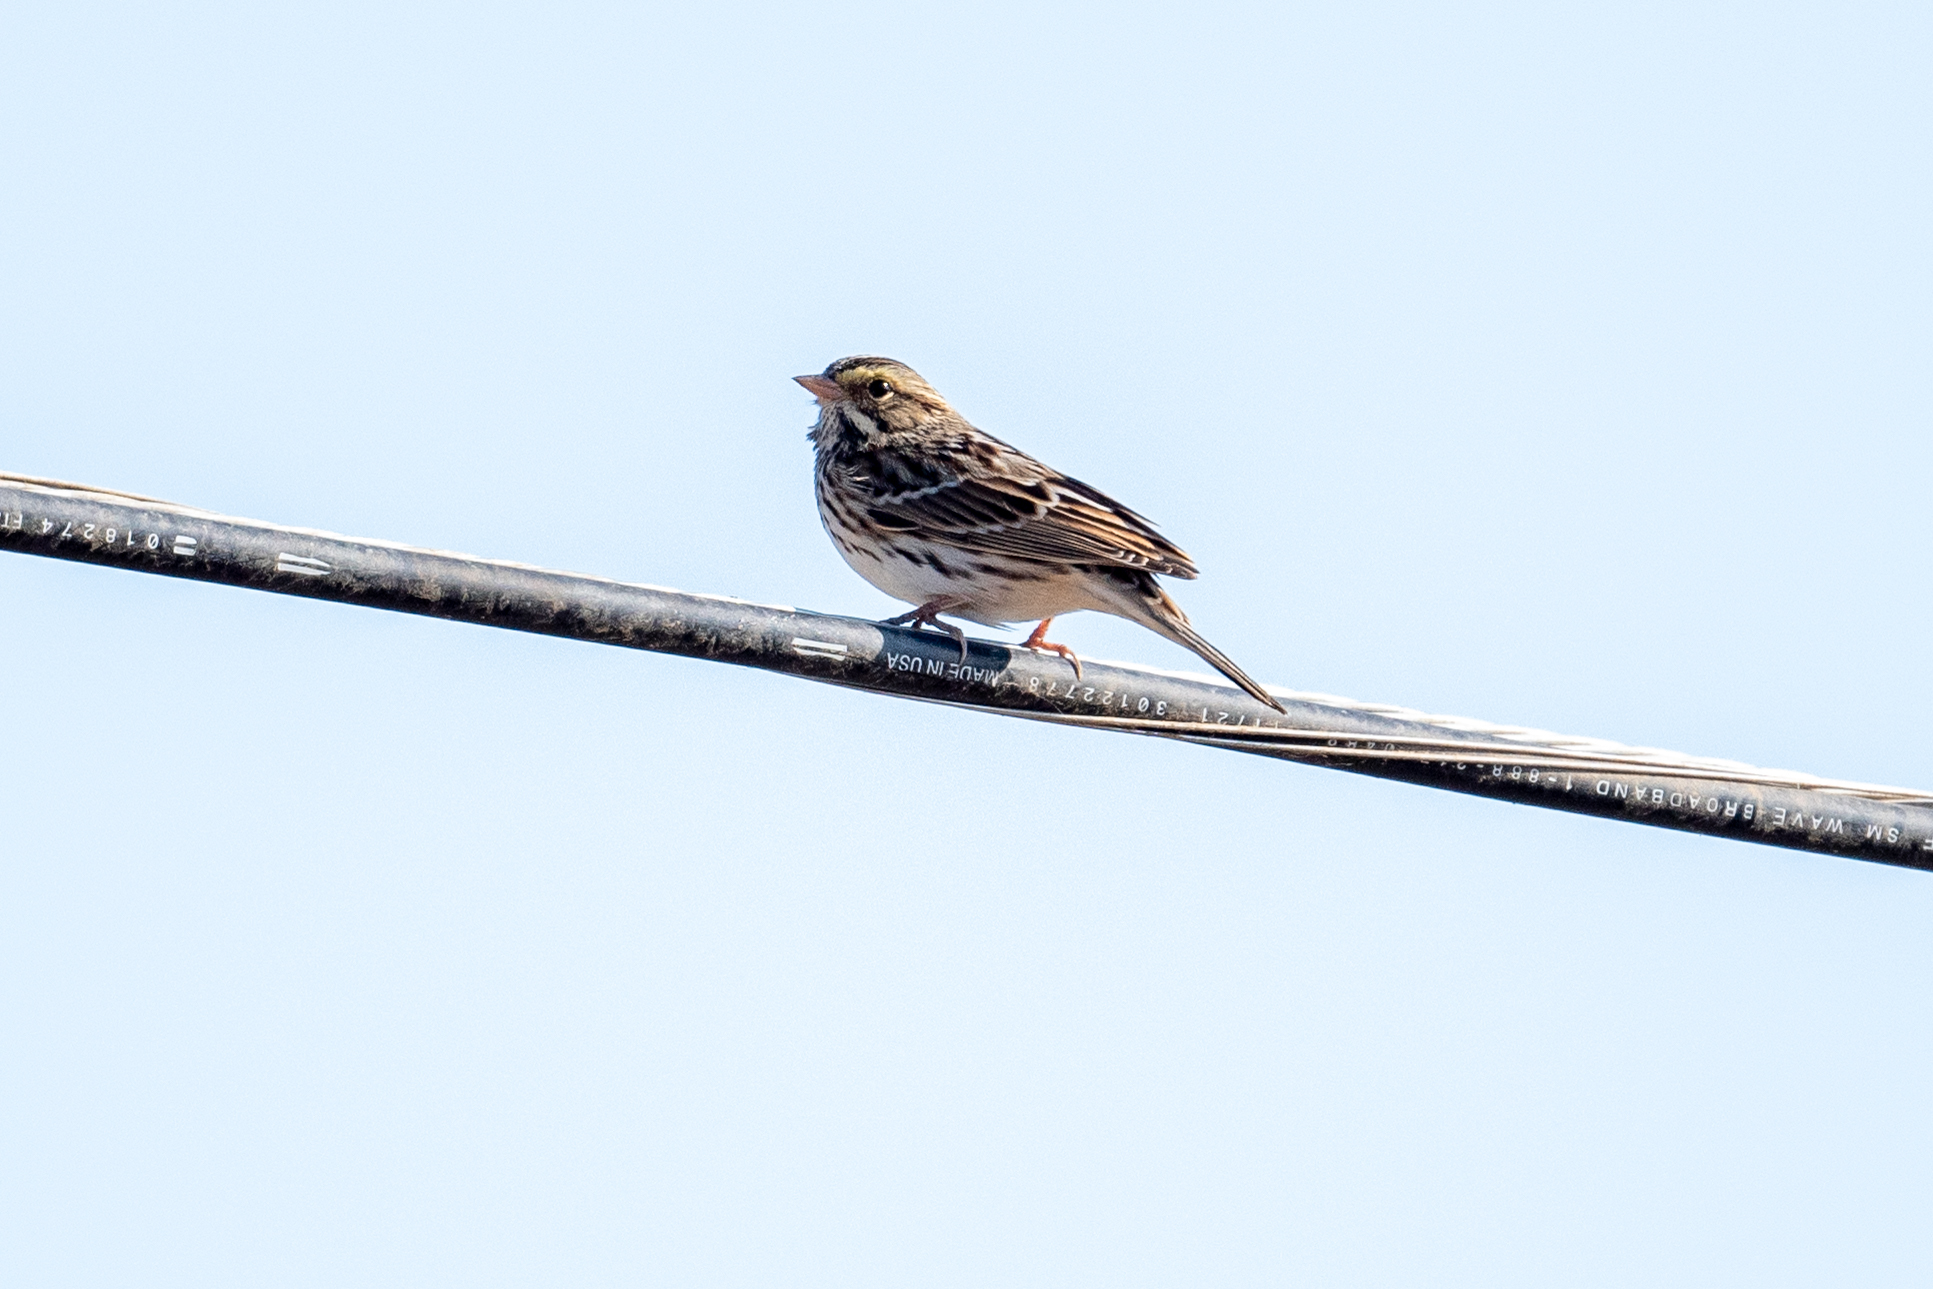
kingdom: Animalia
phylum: Chordata
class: Aves
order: Passeriformes
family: Passerellidae
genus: Passerculus
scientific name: Passerculus sandwichensis
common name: Savannah sparrow
